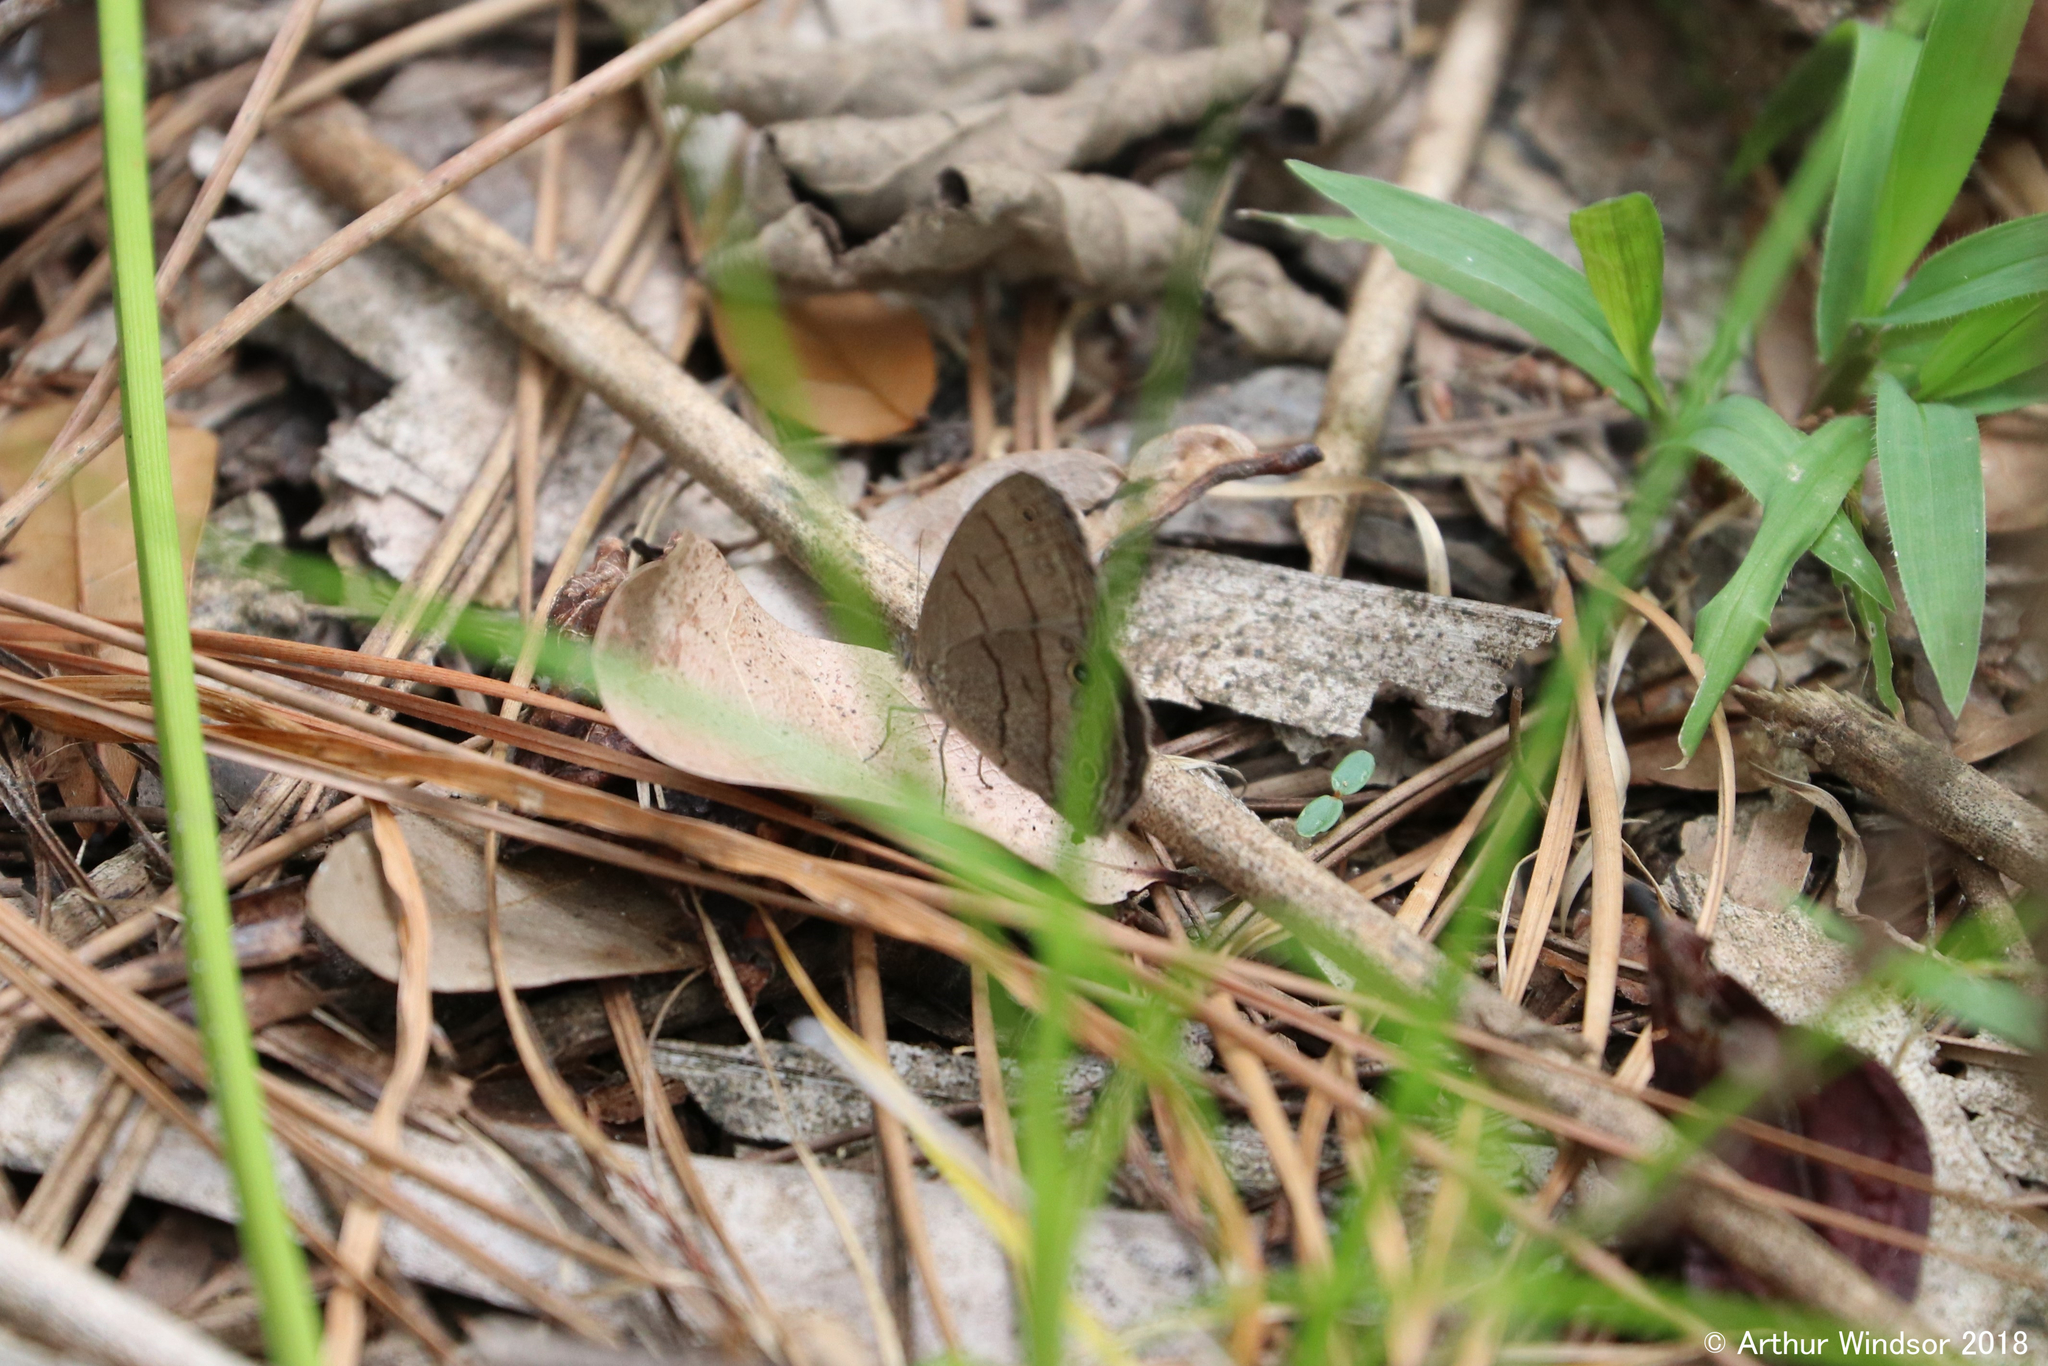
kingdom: Animalia
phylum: Arthropoda
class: Insecta
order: Lepidoptera
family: Nymphalidae
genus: Hermeuptychia
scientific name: Hermeuptychia hermes
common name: Hermes satyr
